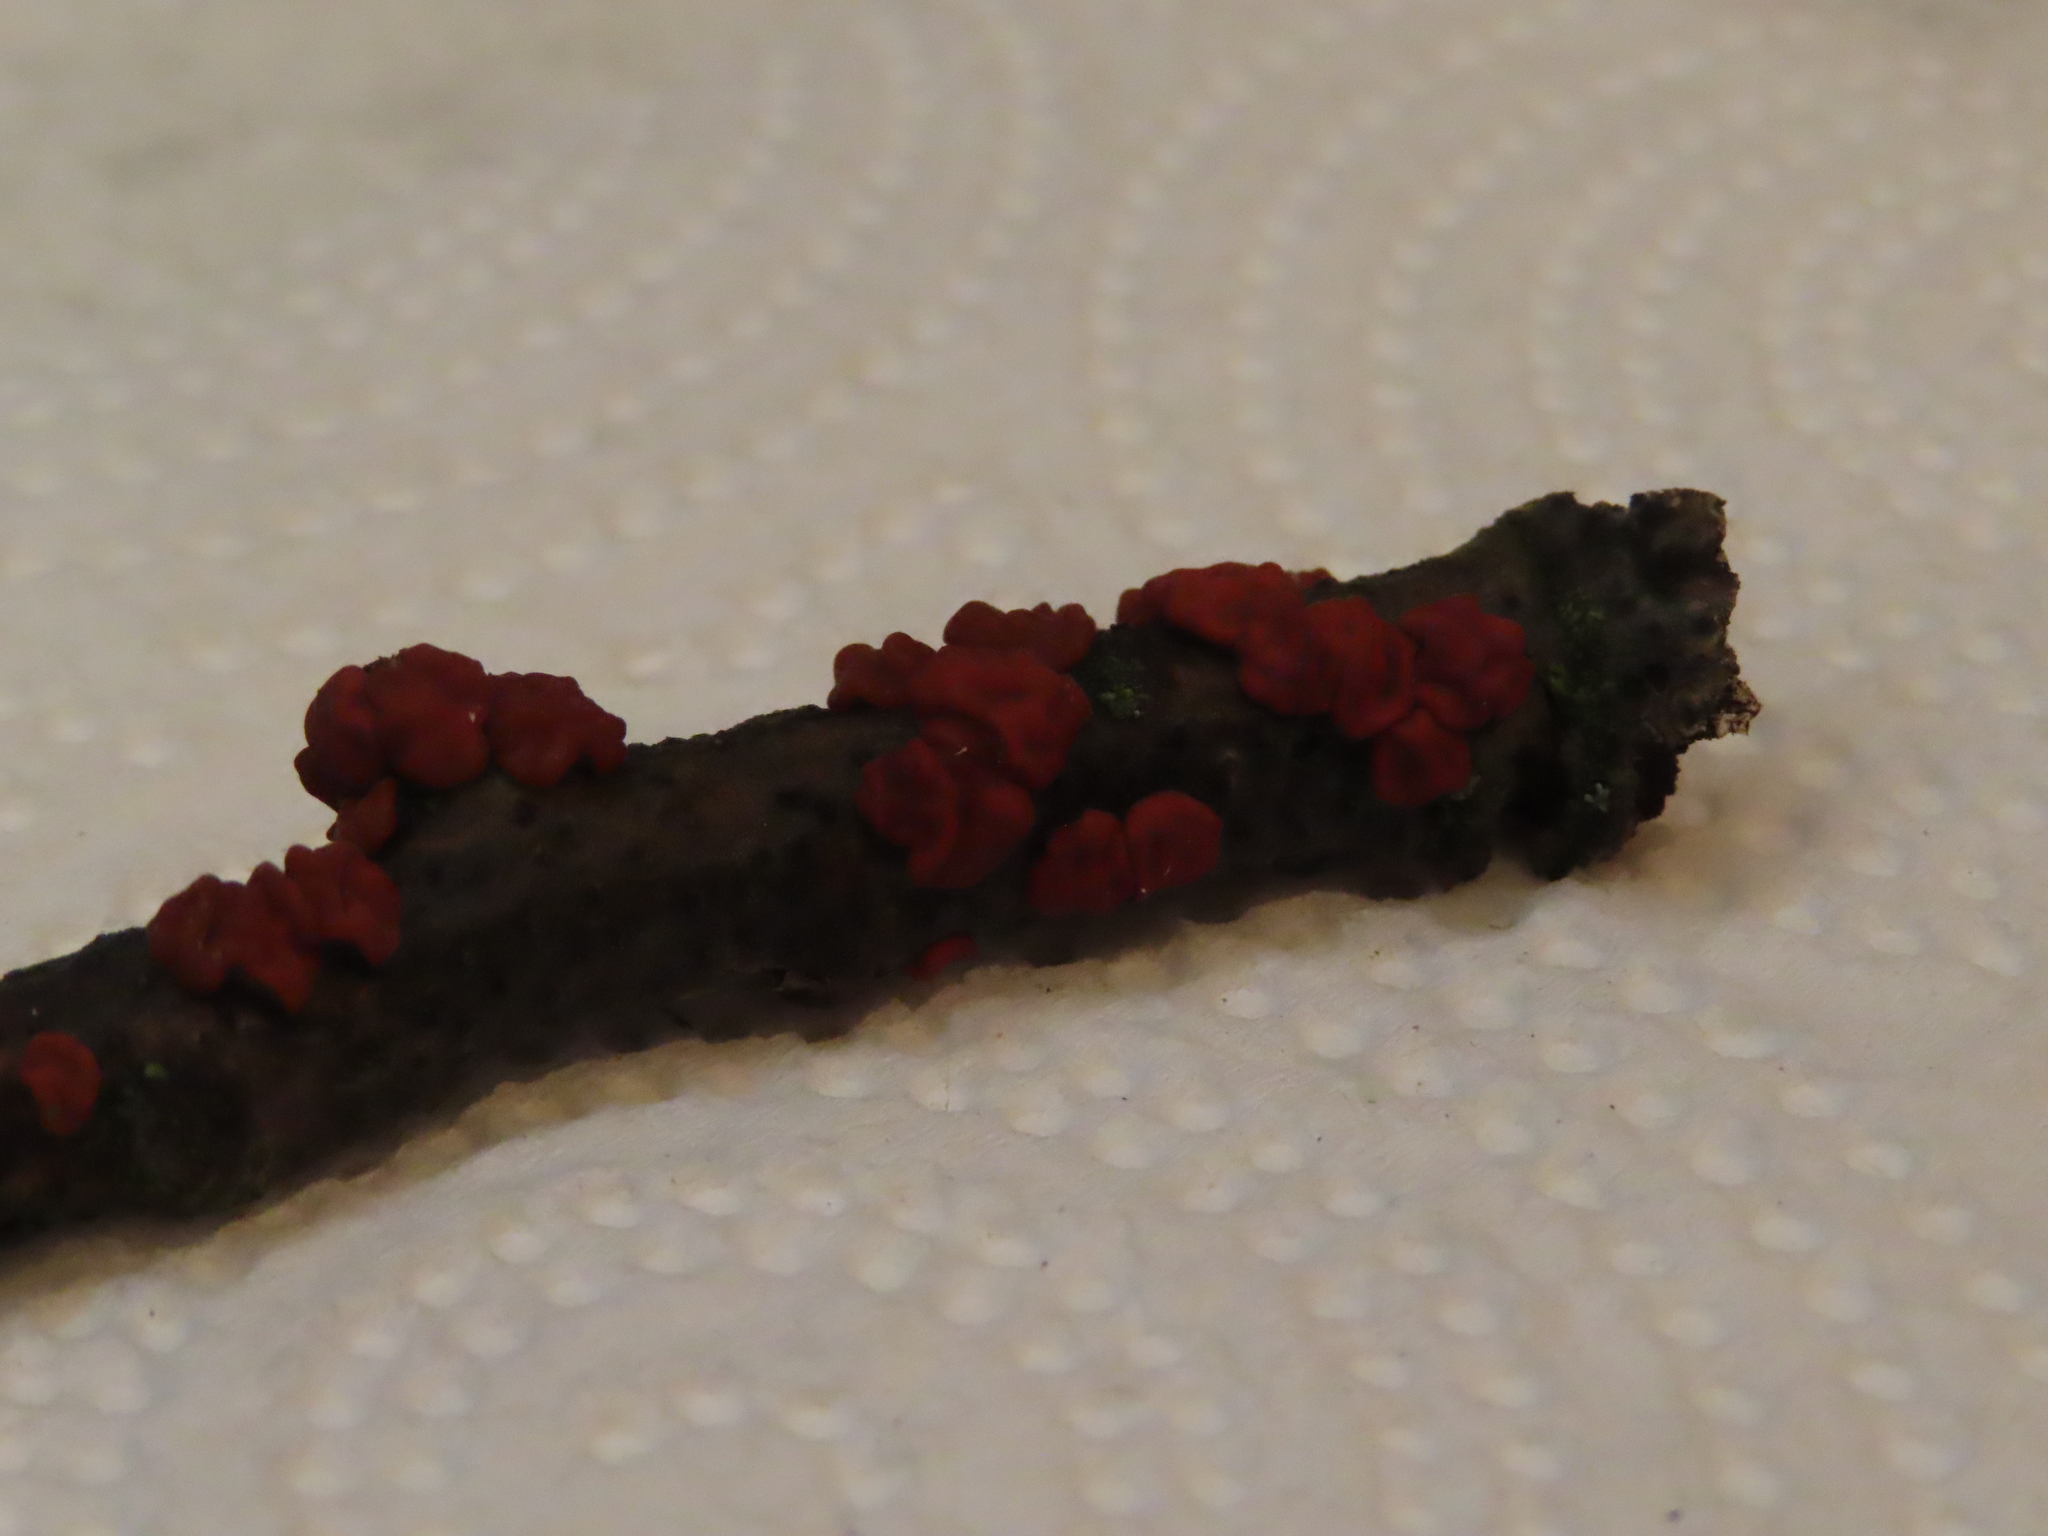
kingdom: Fungi
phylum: Basidiomycota
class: Agaricomycetes
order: Russulales
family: Peniophoraceae
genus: Peniophora
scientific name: Peniophora rufa
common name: Red tree brain fungus
